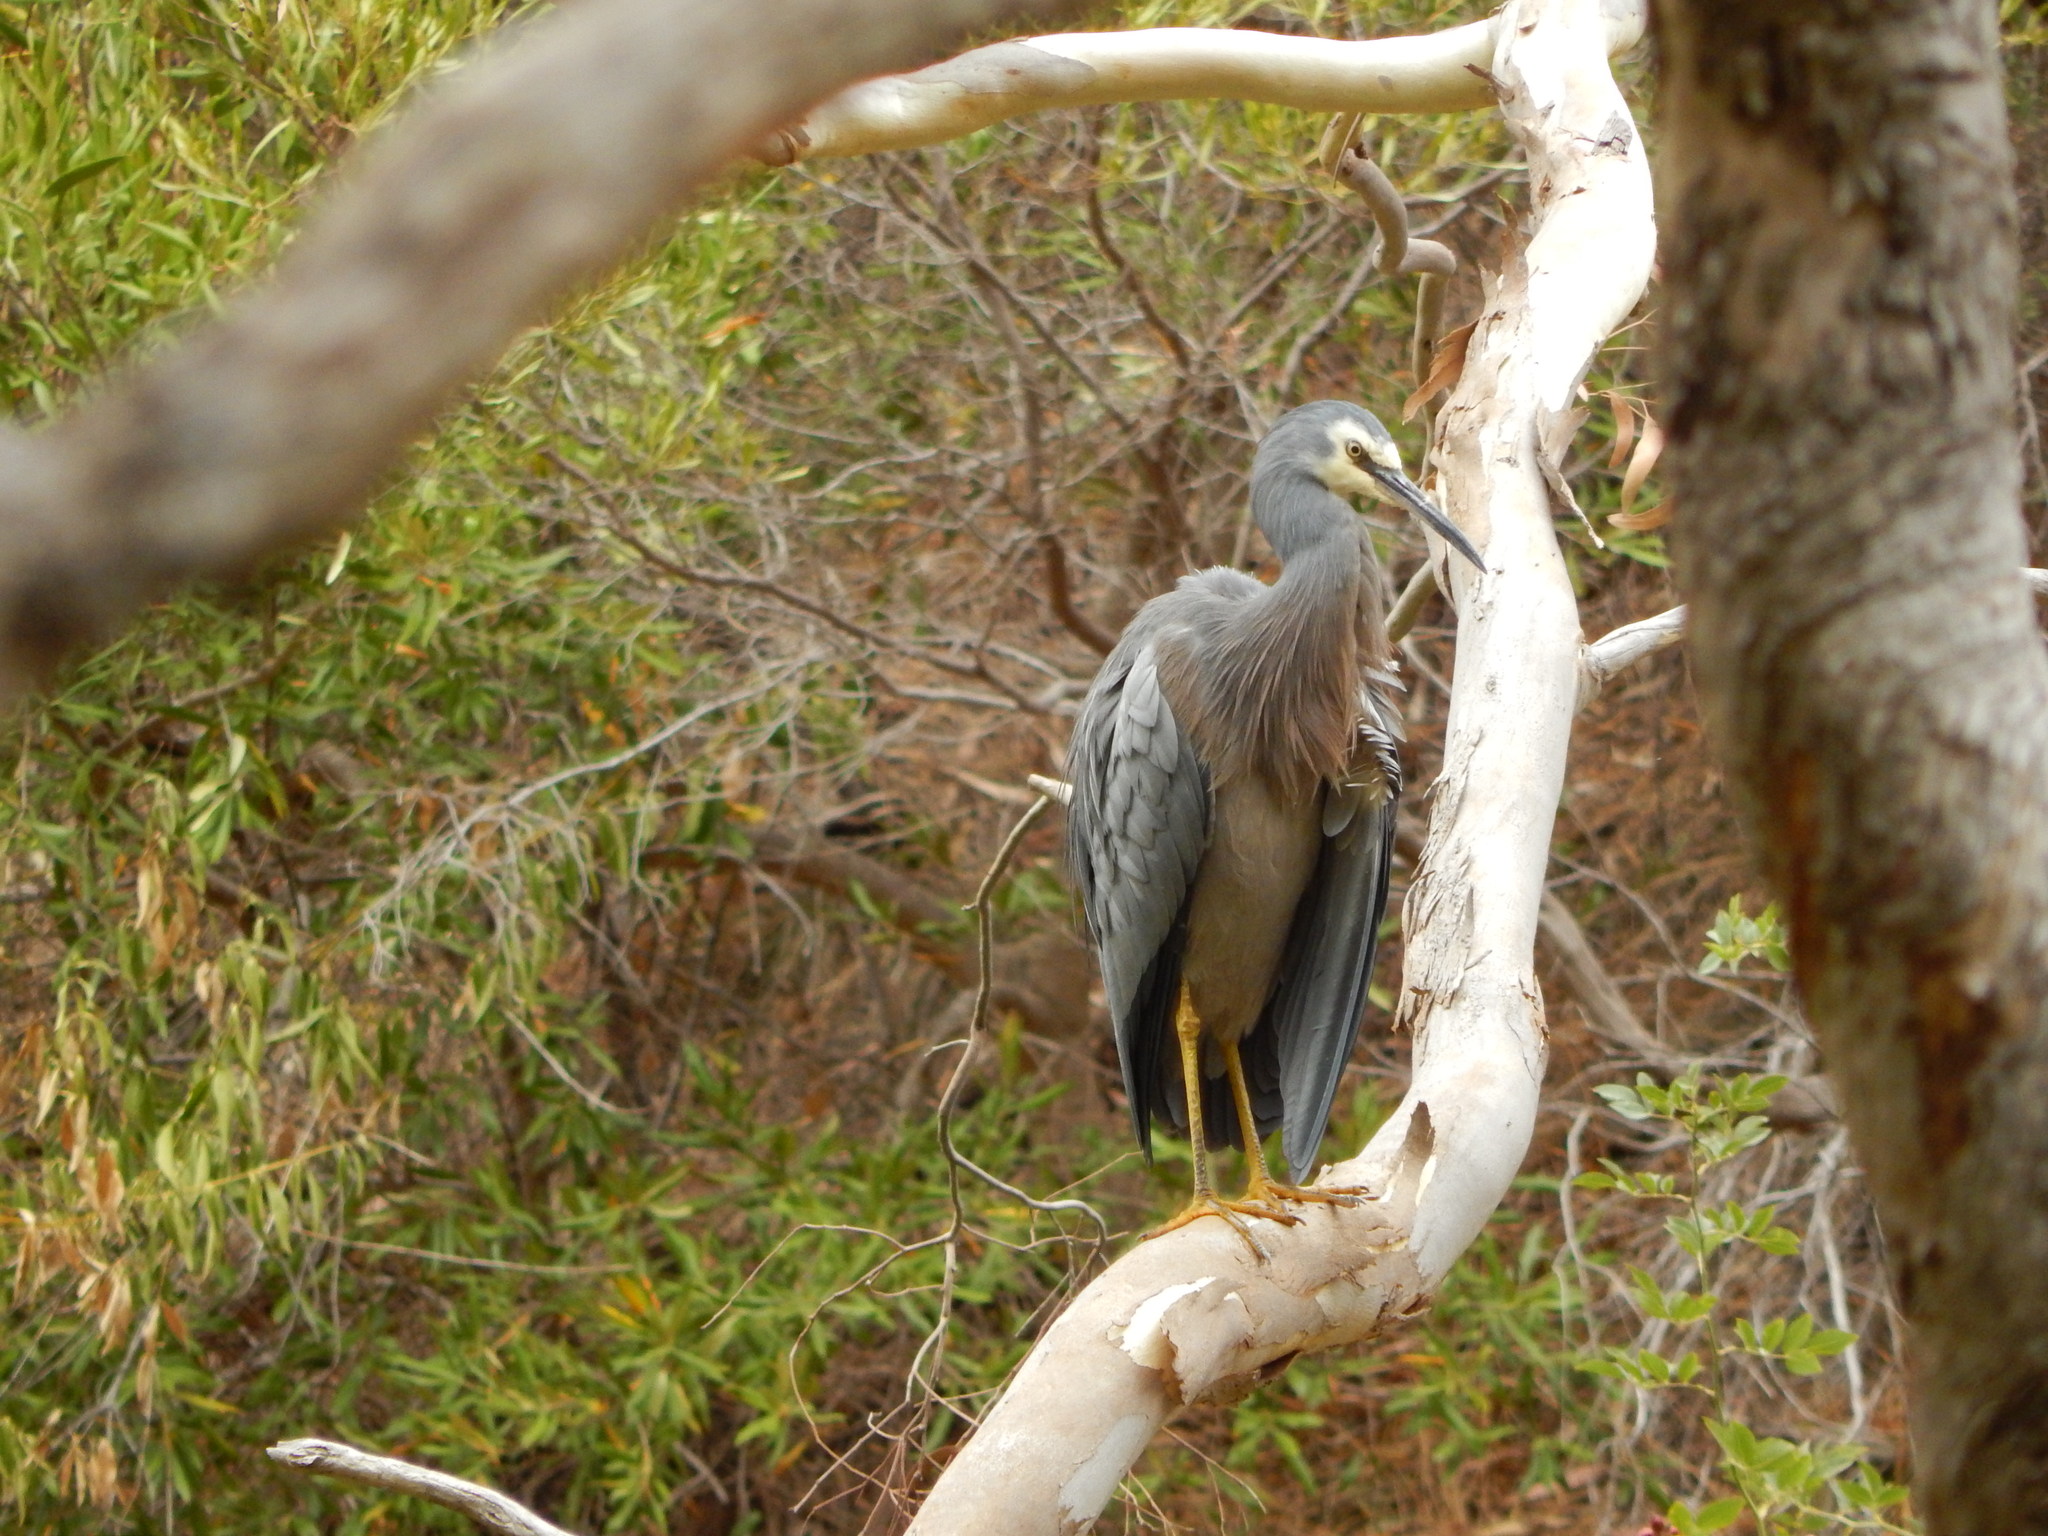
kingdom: Animalia
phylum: Chordata
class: Aves
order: Pelecaniformes
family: Ardeidae
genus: Egretta
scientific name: Egretta novaehollandiae
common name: White-faced heron
